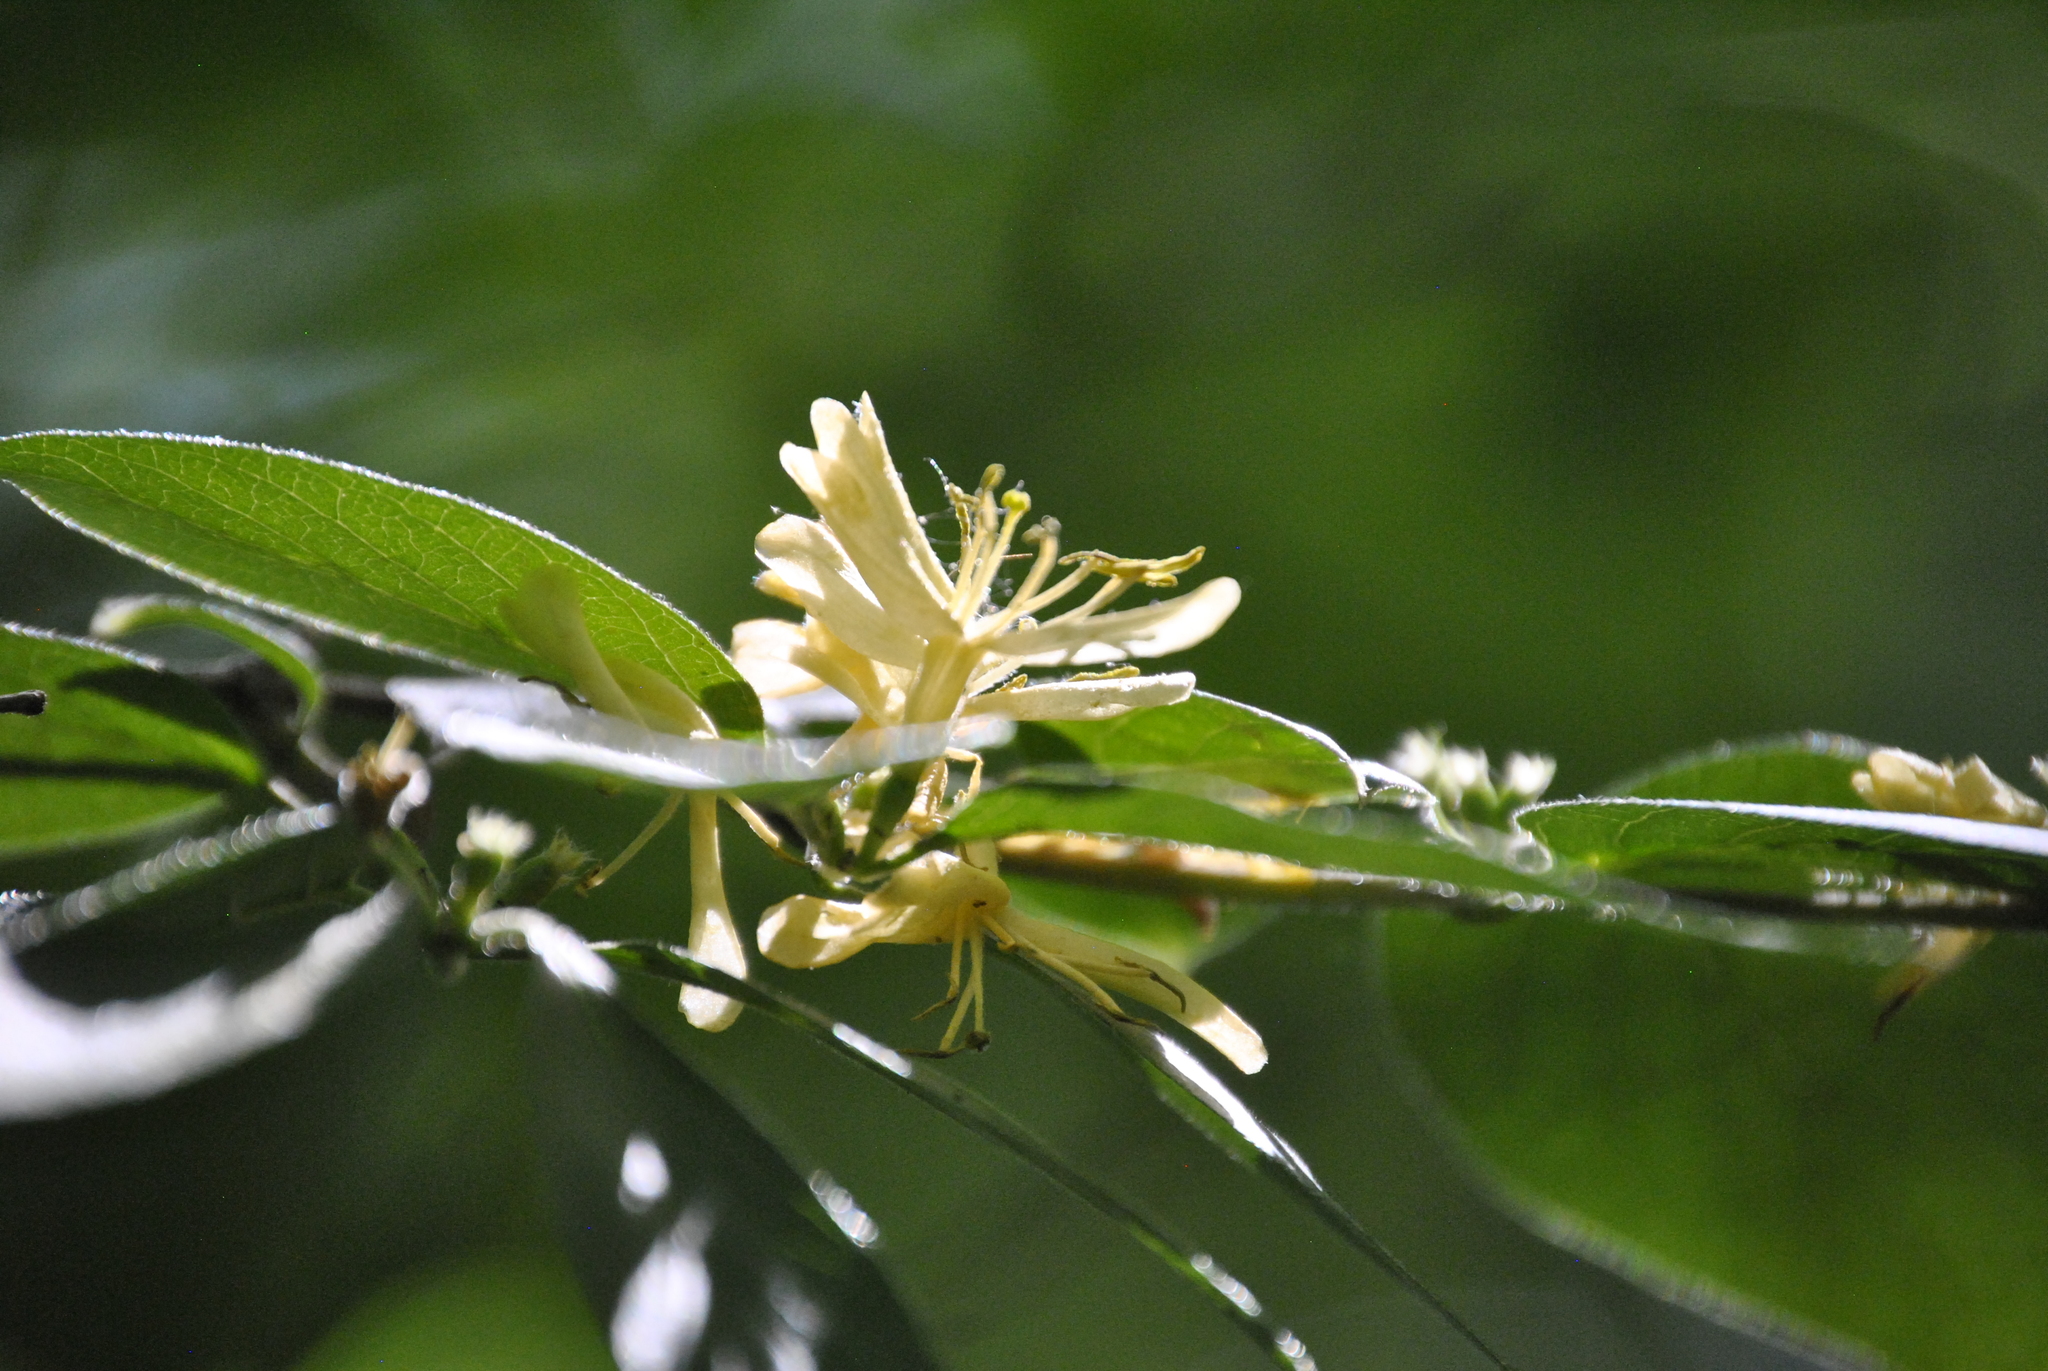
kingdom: Plantae
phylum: Tracheophyta
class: Magnoliopsida
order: Dipsacales
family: Caprifoliaceae
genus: Lonicera
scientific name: Lonicera maackii
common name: Amur honeysuckle
